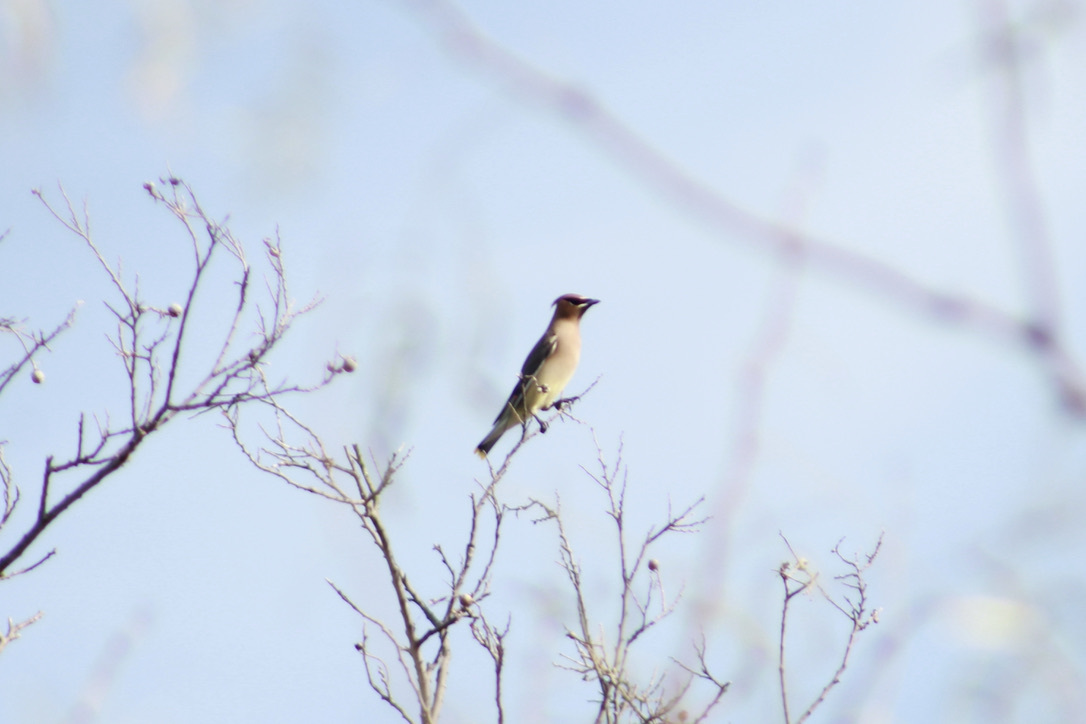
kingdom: Animalia
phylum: Chordata
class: Aves
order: Passeriformes
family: Bombycillidae
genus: Bombycilla
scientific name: Bombycilla cedrorum
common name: Cedar waxwing
